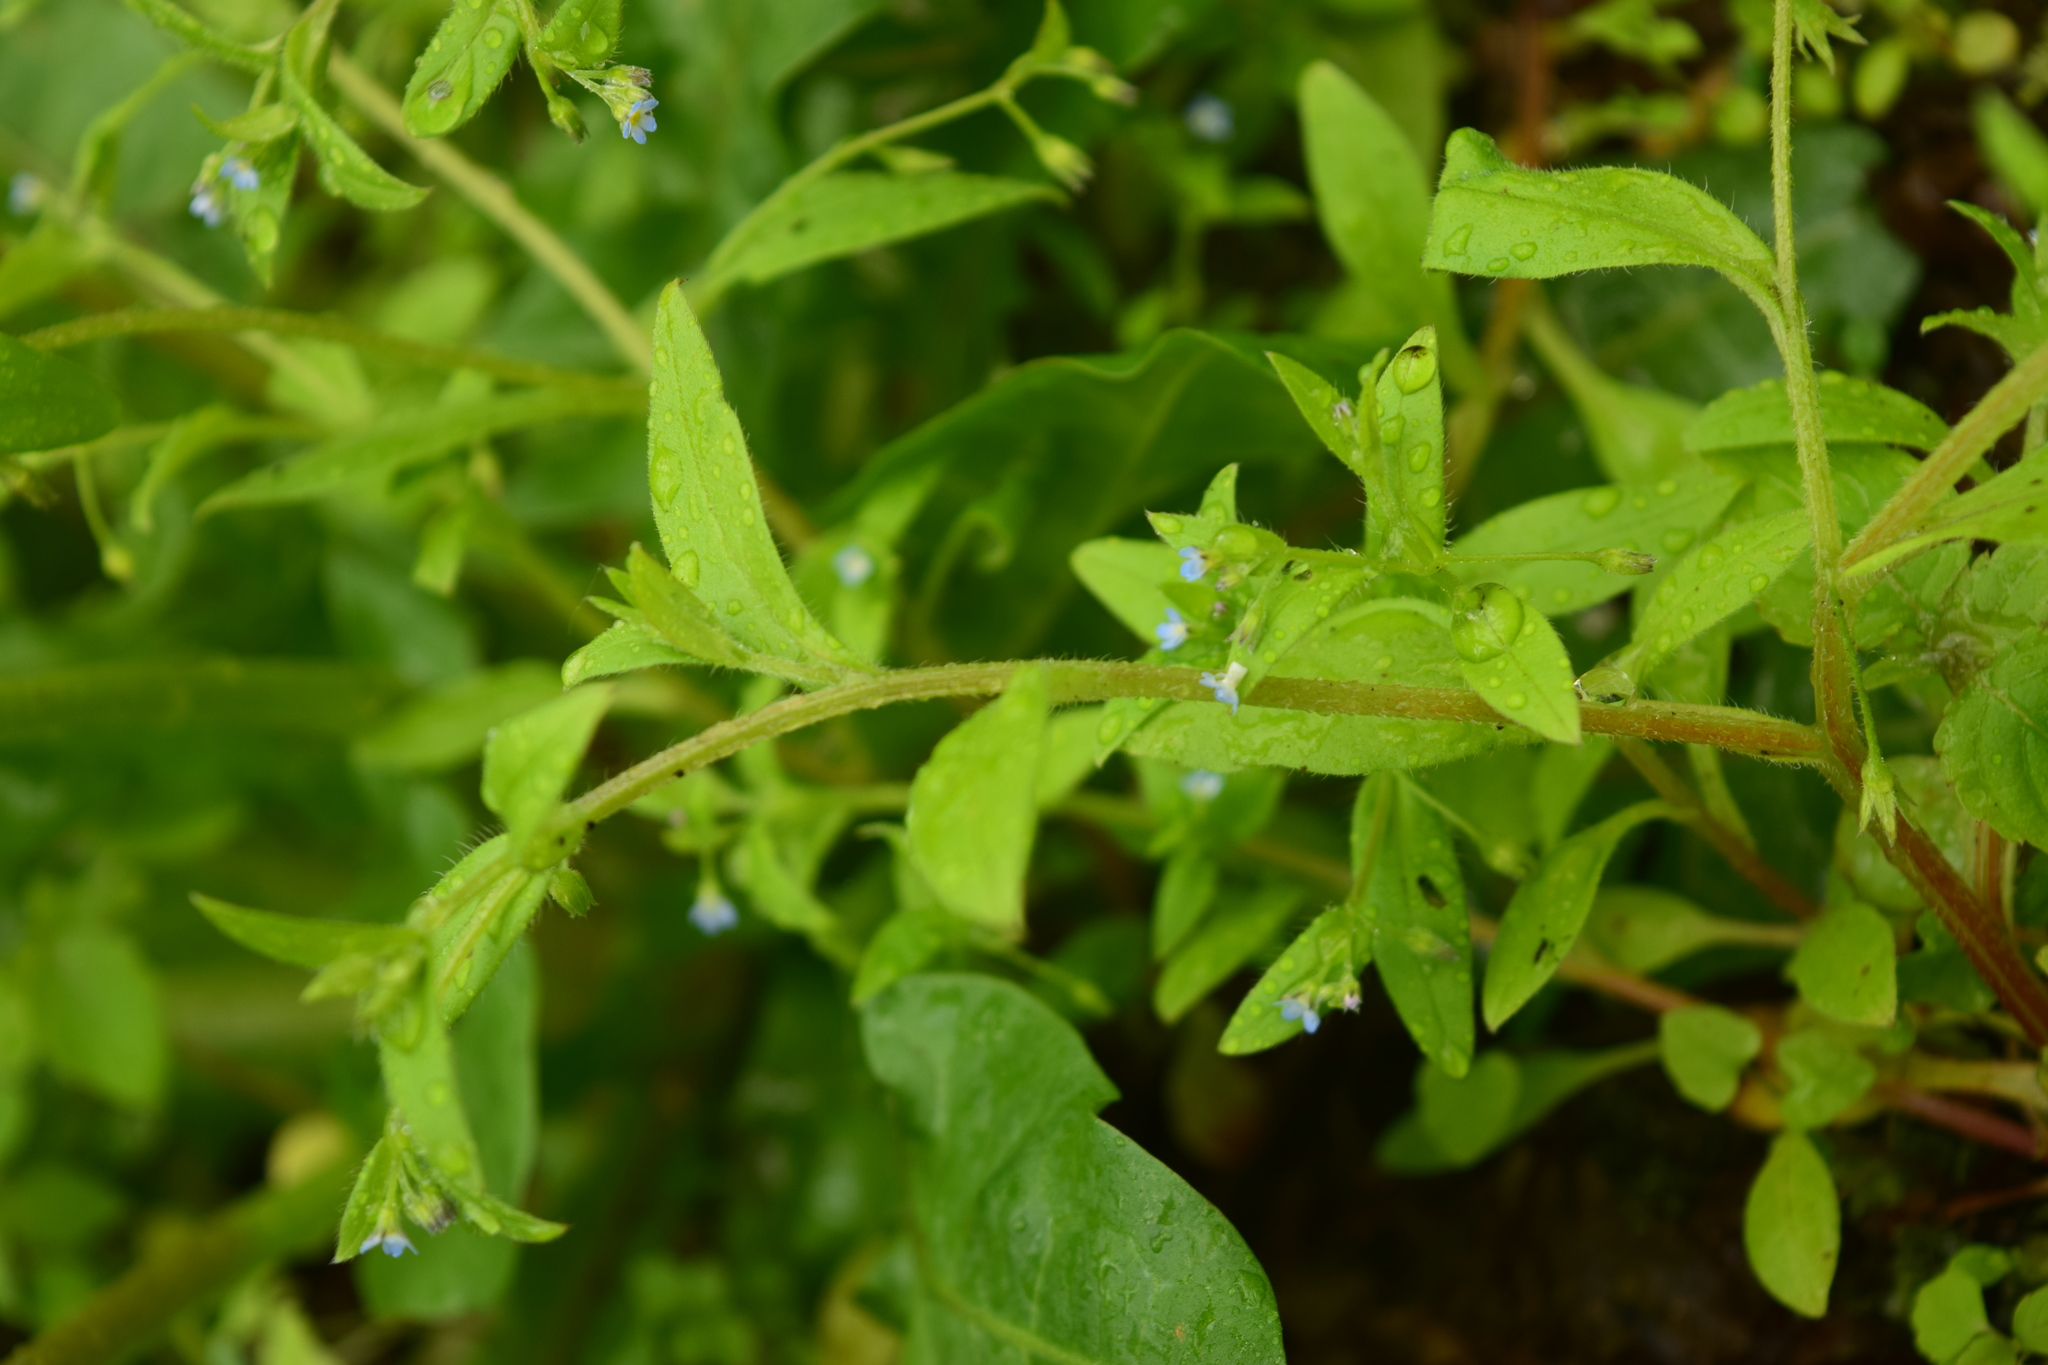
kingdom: Plantae
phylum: Tracheophyta
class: Magnoliopsida
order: Boraginales
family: Boraginaceae
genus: Myosotis
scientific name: Myosotis sparsiflora
